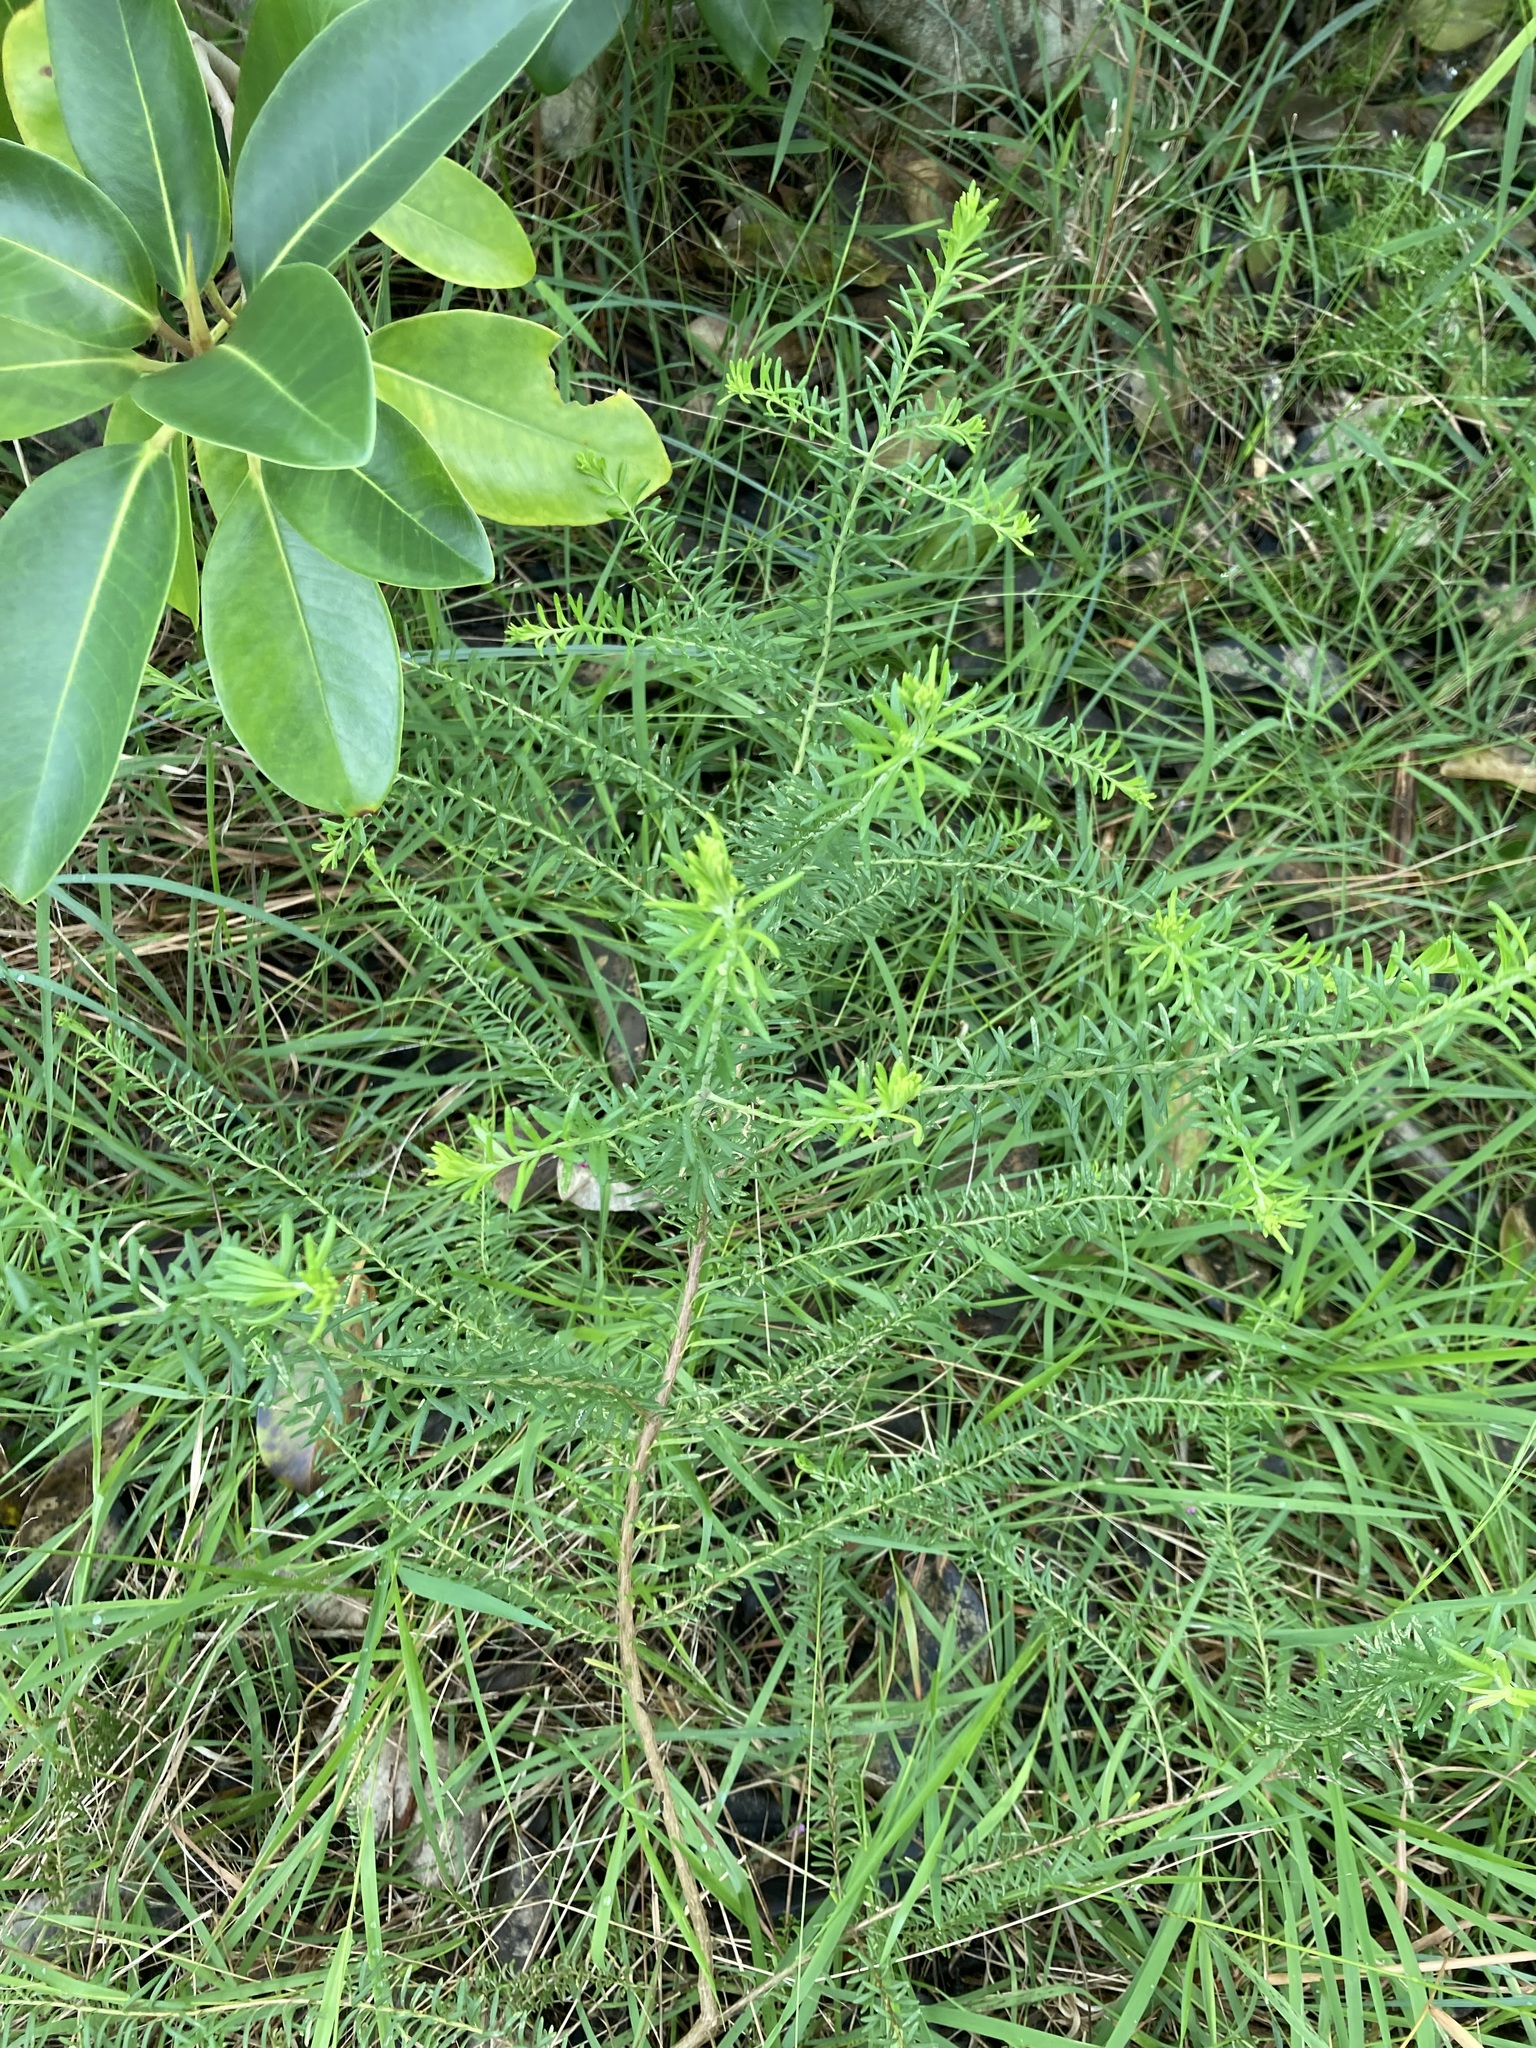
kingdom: Plantae
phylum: Tracheophyta
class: Magnoliopsida
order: Asterales
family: Asteraceae
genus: Ozothamnus
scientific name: Ozothamnus diosmifolius
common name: White-dogwood
